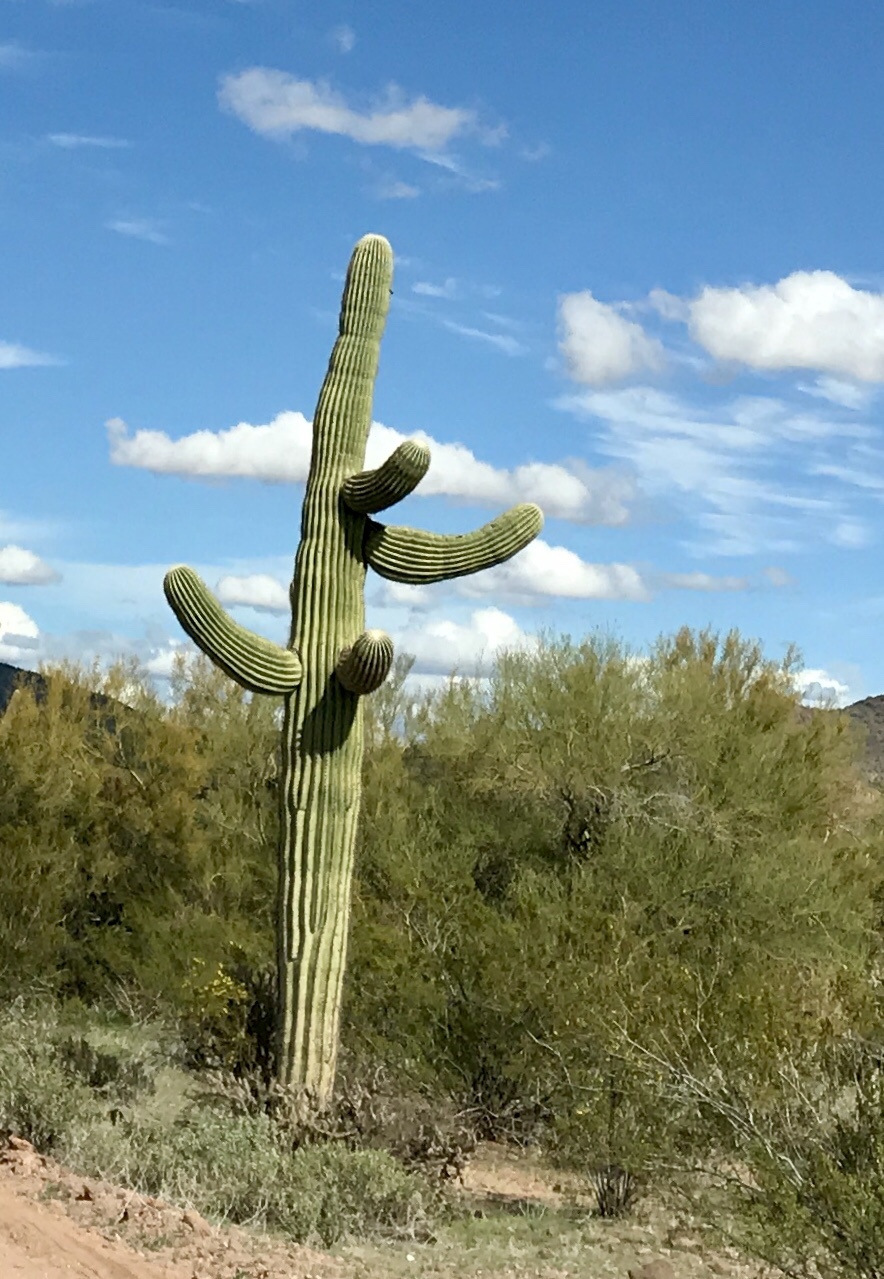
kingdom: Plantae
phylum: Tracheophyta
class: Magnoliopsida
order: Caryophyllales
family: Cactaceae
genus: Carnegiea
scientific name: Carnegiea gigantea
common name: Saguaro
